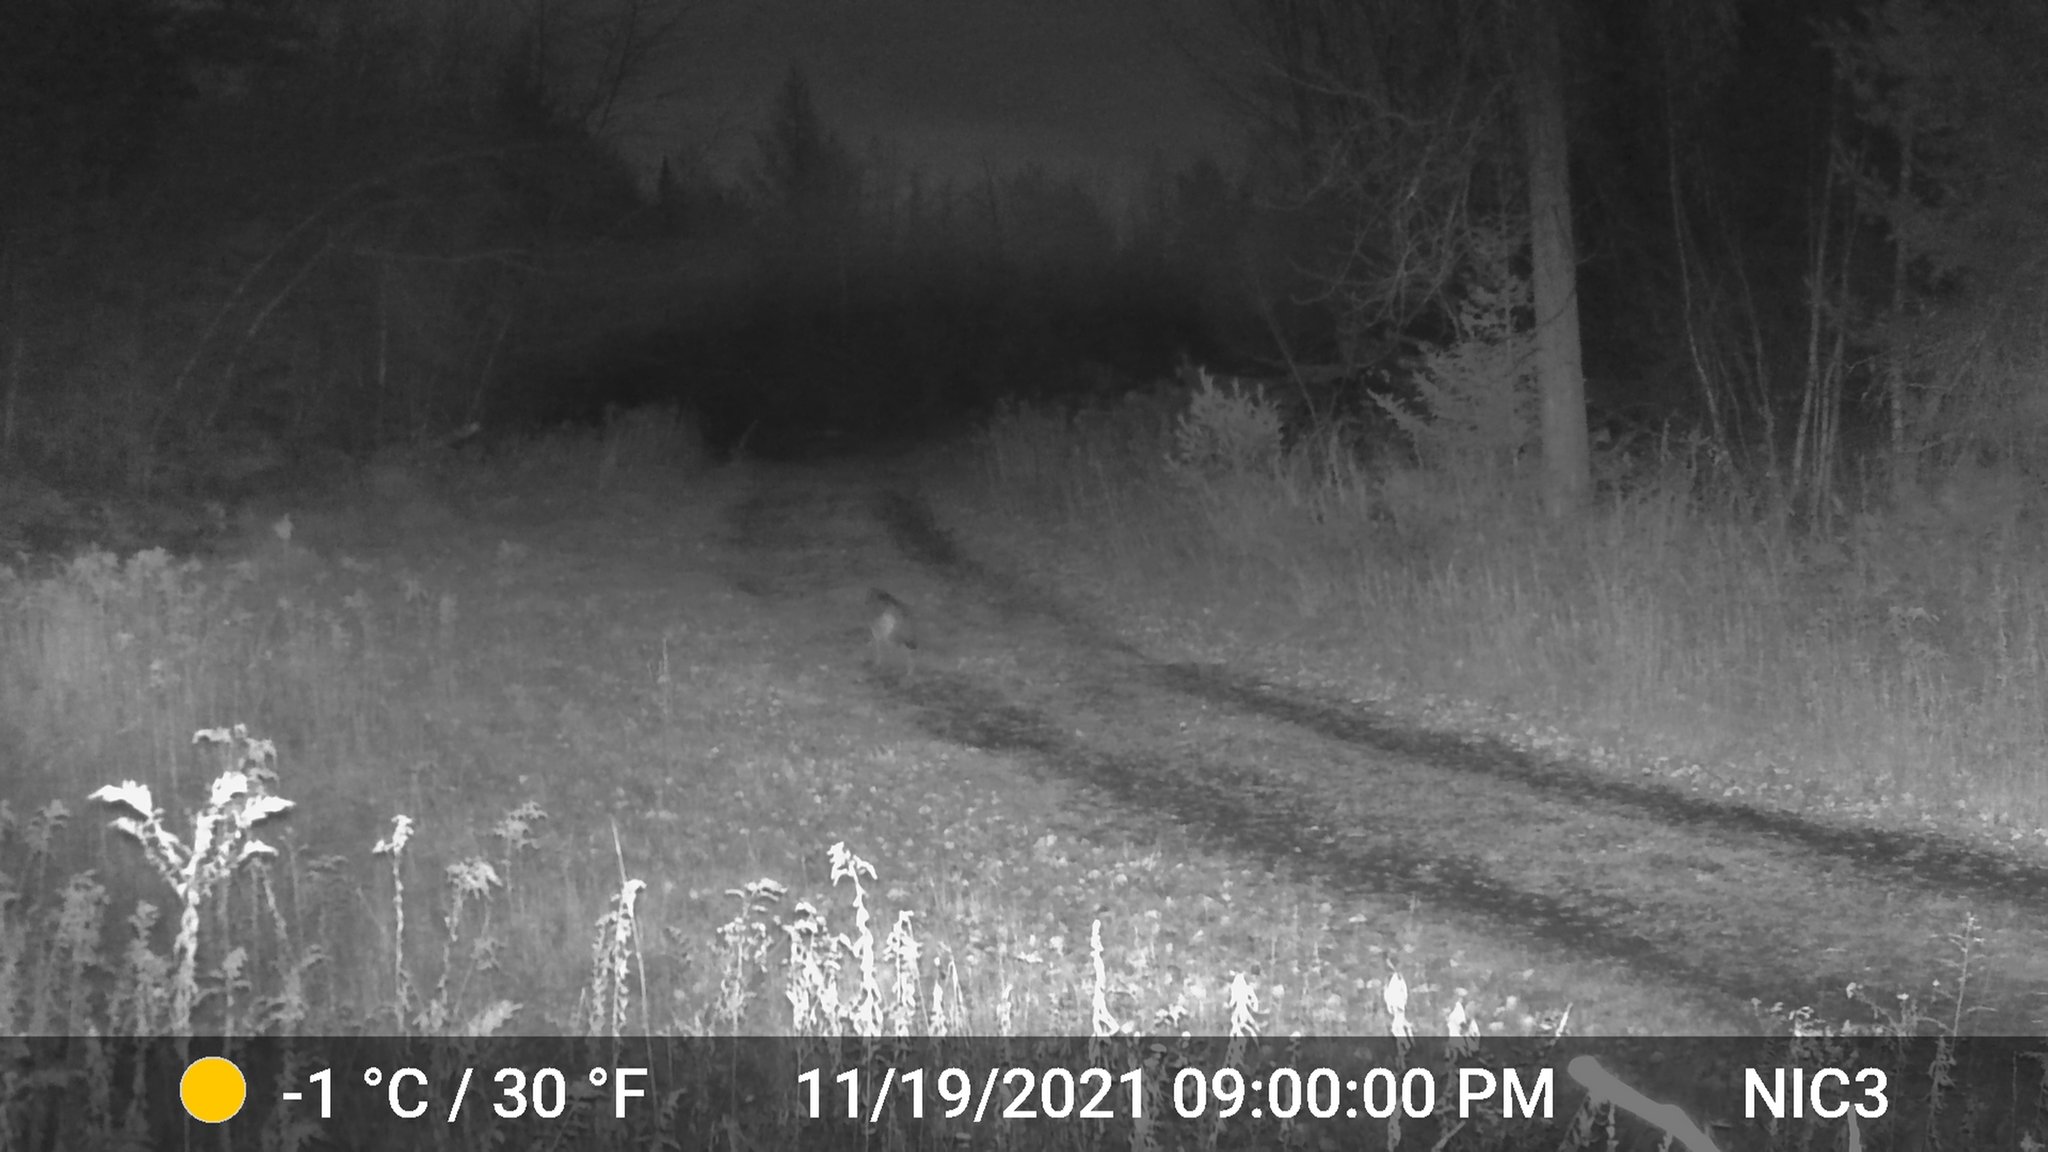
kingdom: Animalia
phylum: Chordata
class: Mammalia
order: Carnivora
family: Canidae
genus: Canis
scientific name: Canis latrans
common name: Coyote
